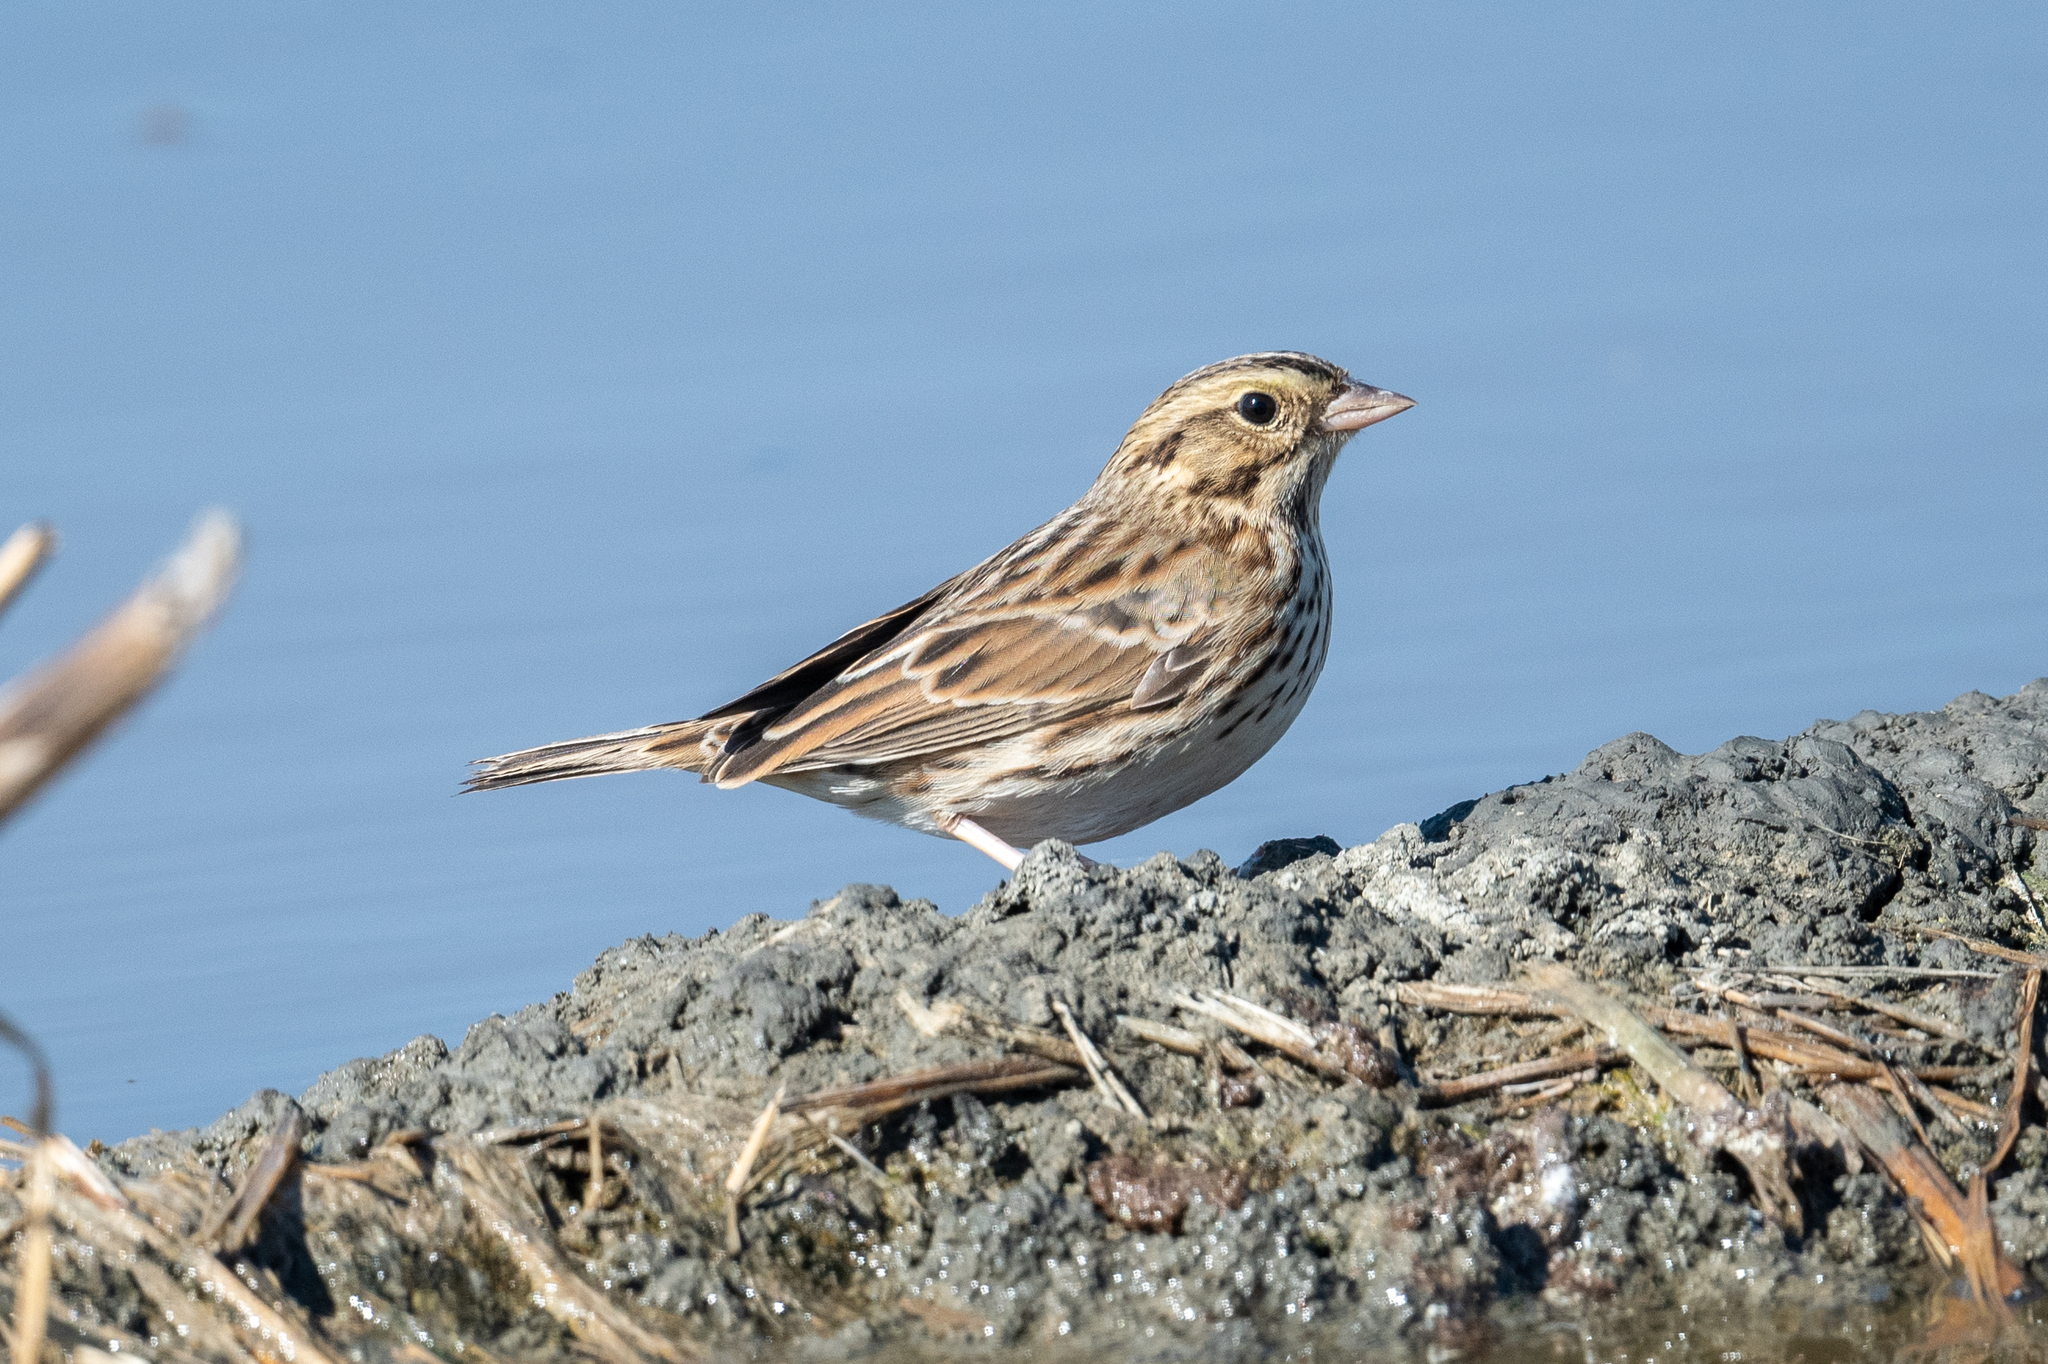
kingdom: Animalia
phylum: Chordata
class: Aves
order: Passeriformes
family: Passerellidae
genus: Passerculus
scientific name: Passerculus sandwichensis
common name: Savannah sparrow
